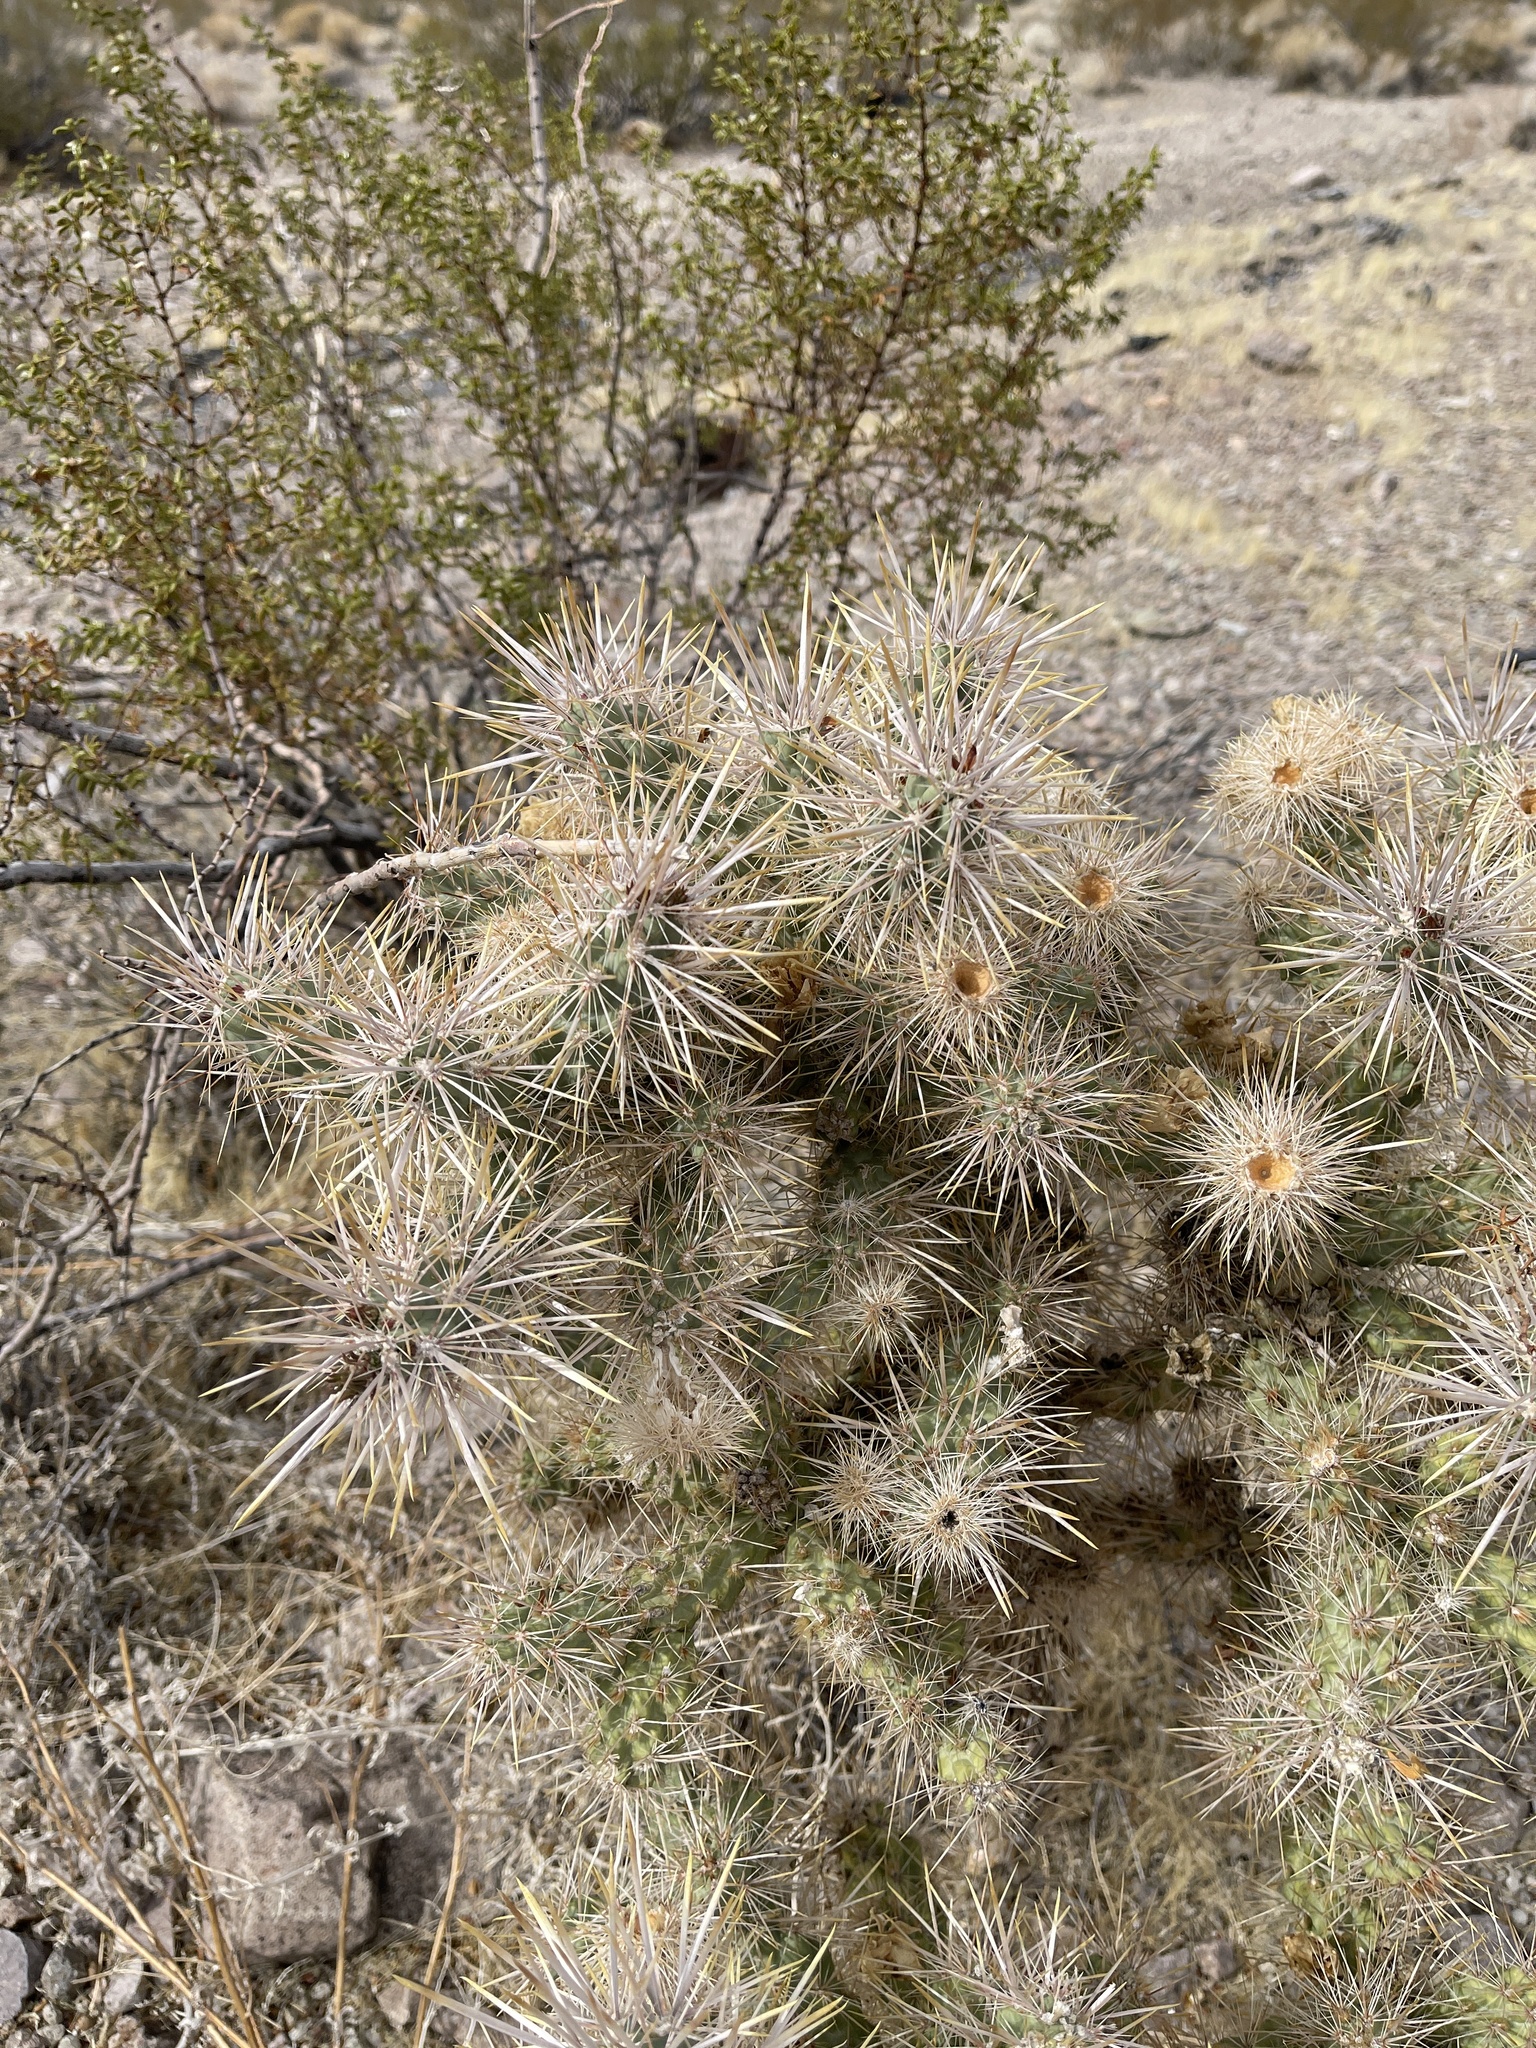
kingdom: Plantae
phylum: Tracheophyta
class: Magnoliopsida
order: Caryophyllales
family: Cactaceae
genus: Cylindropuntia
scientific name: Cylindropuntia echinocarpa
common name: Ground cholla
